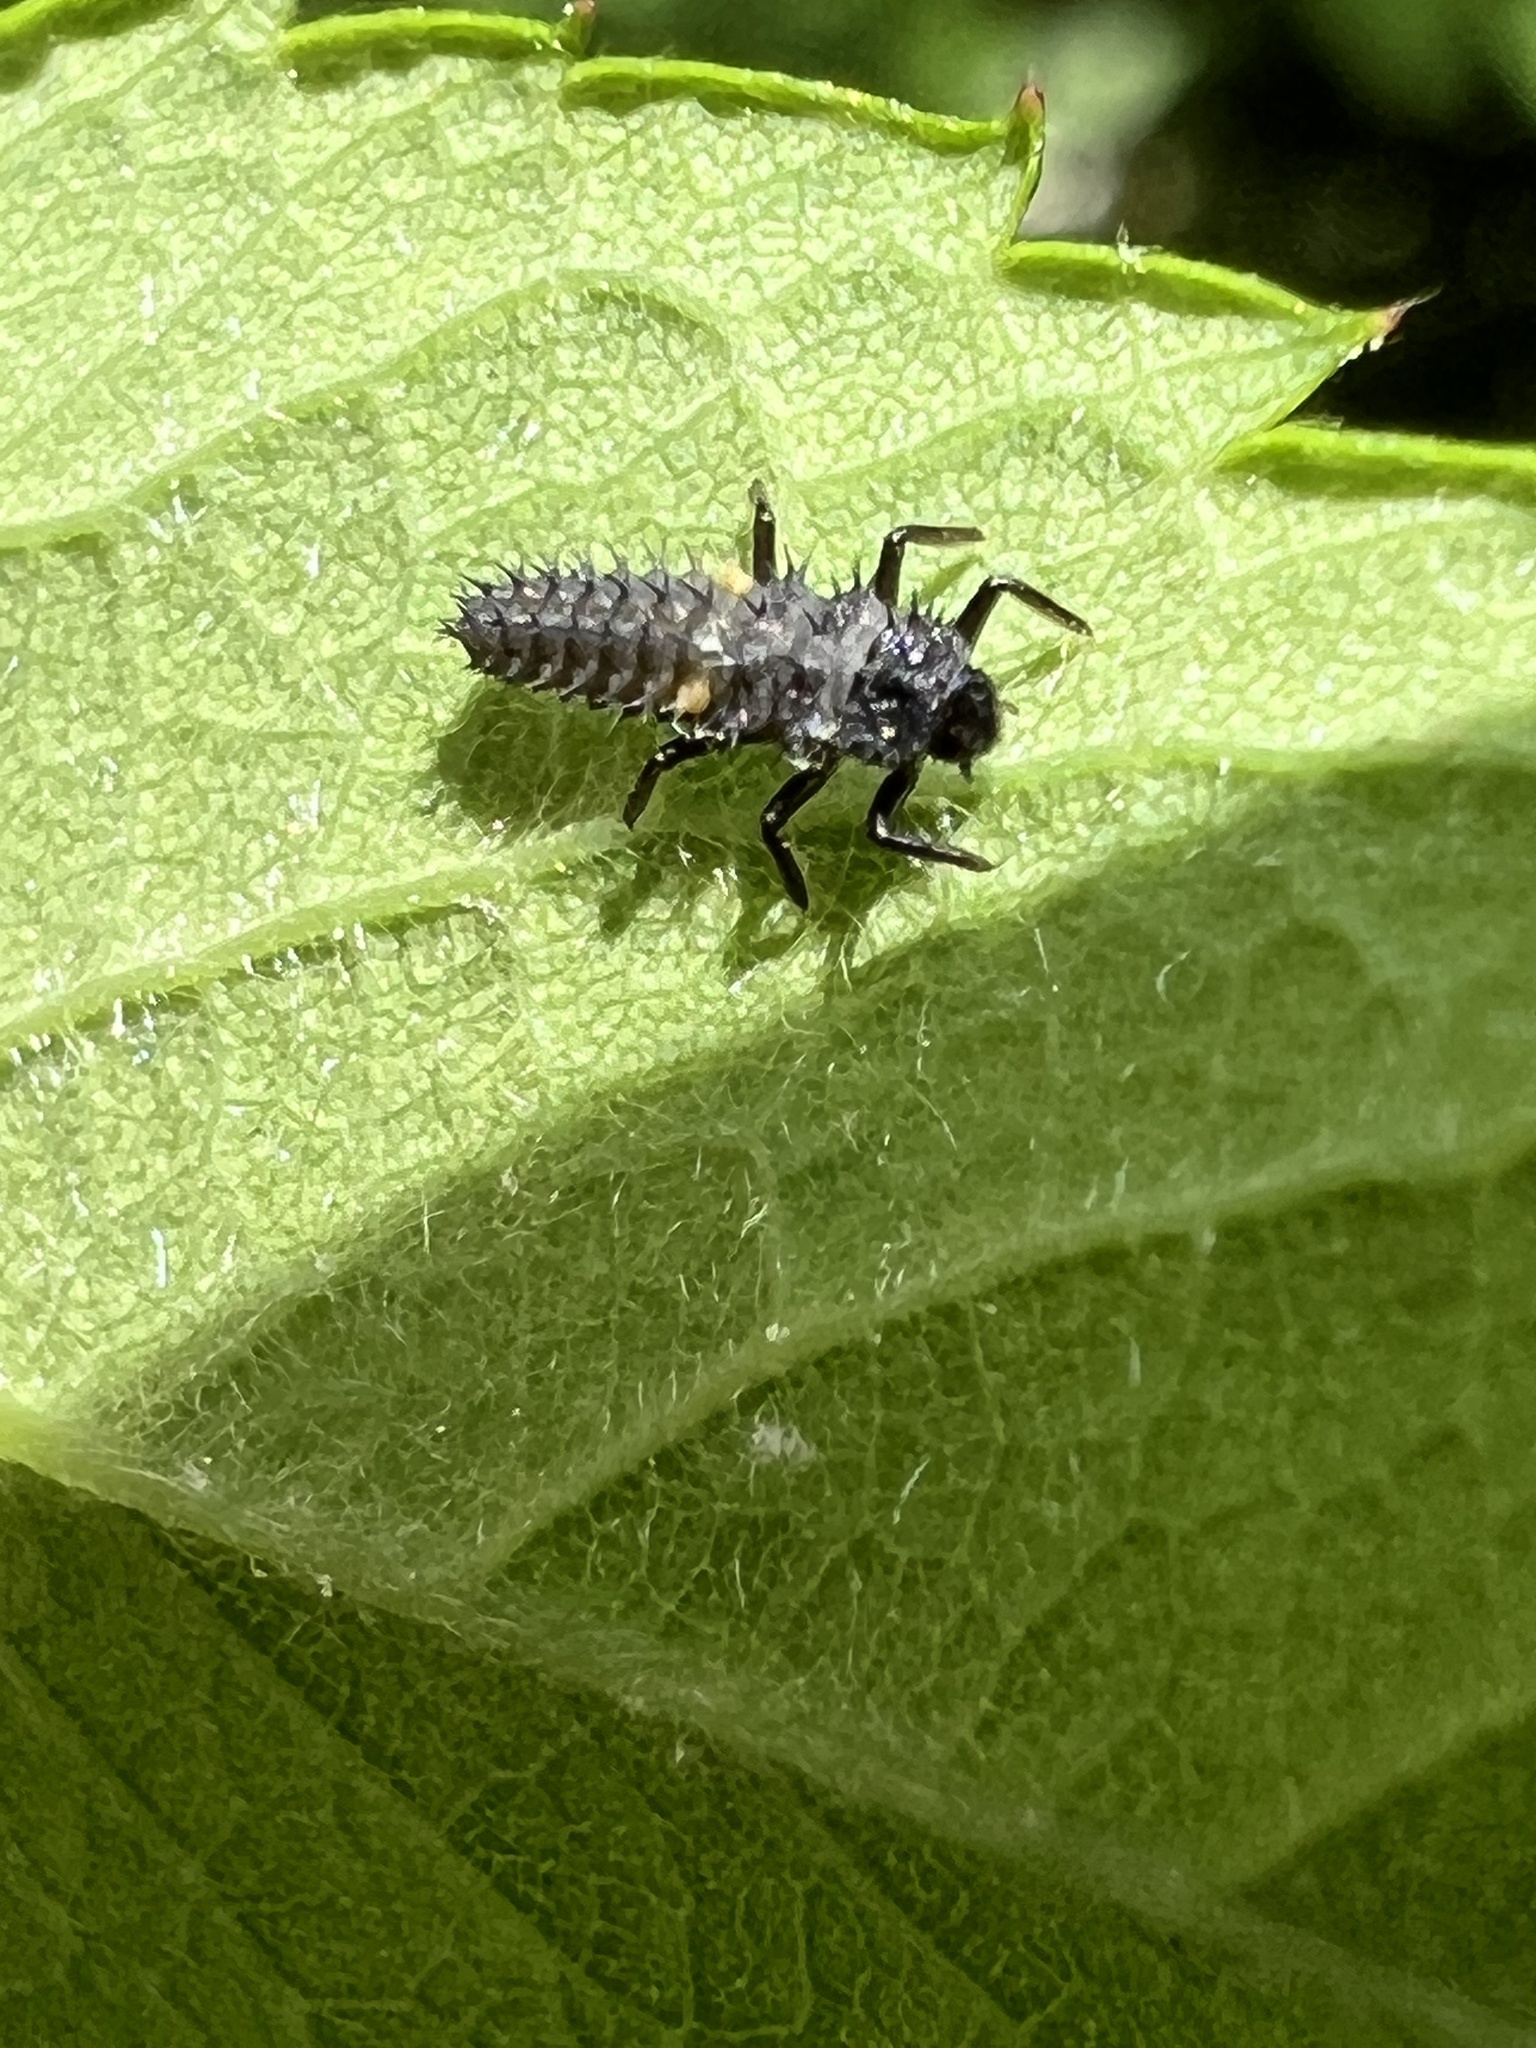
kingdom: Animalia
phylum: Arthropoda
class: Insecta
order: Coleoptera
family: Coccinellidae
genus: Harmonia
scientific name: Harmonia axyridis
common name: Harlequin ladybird
